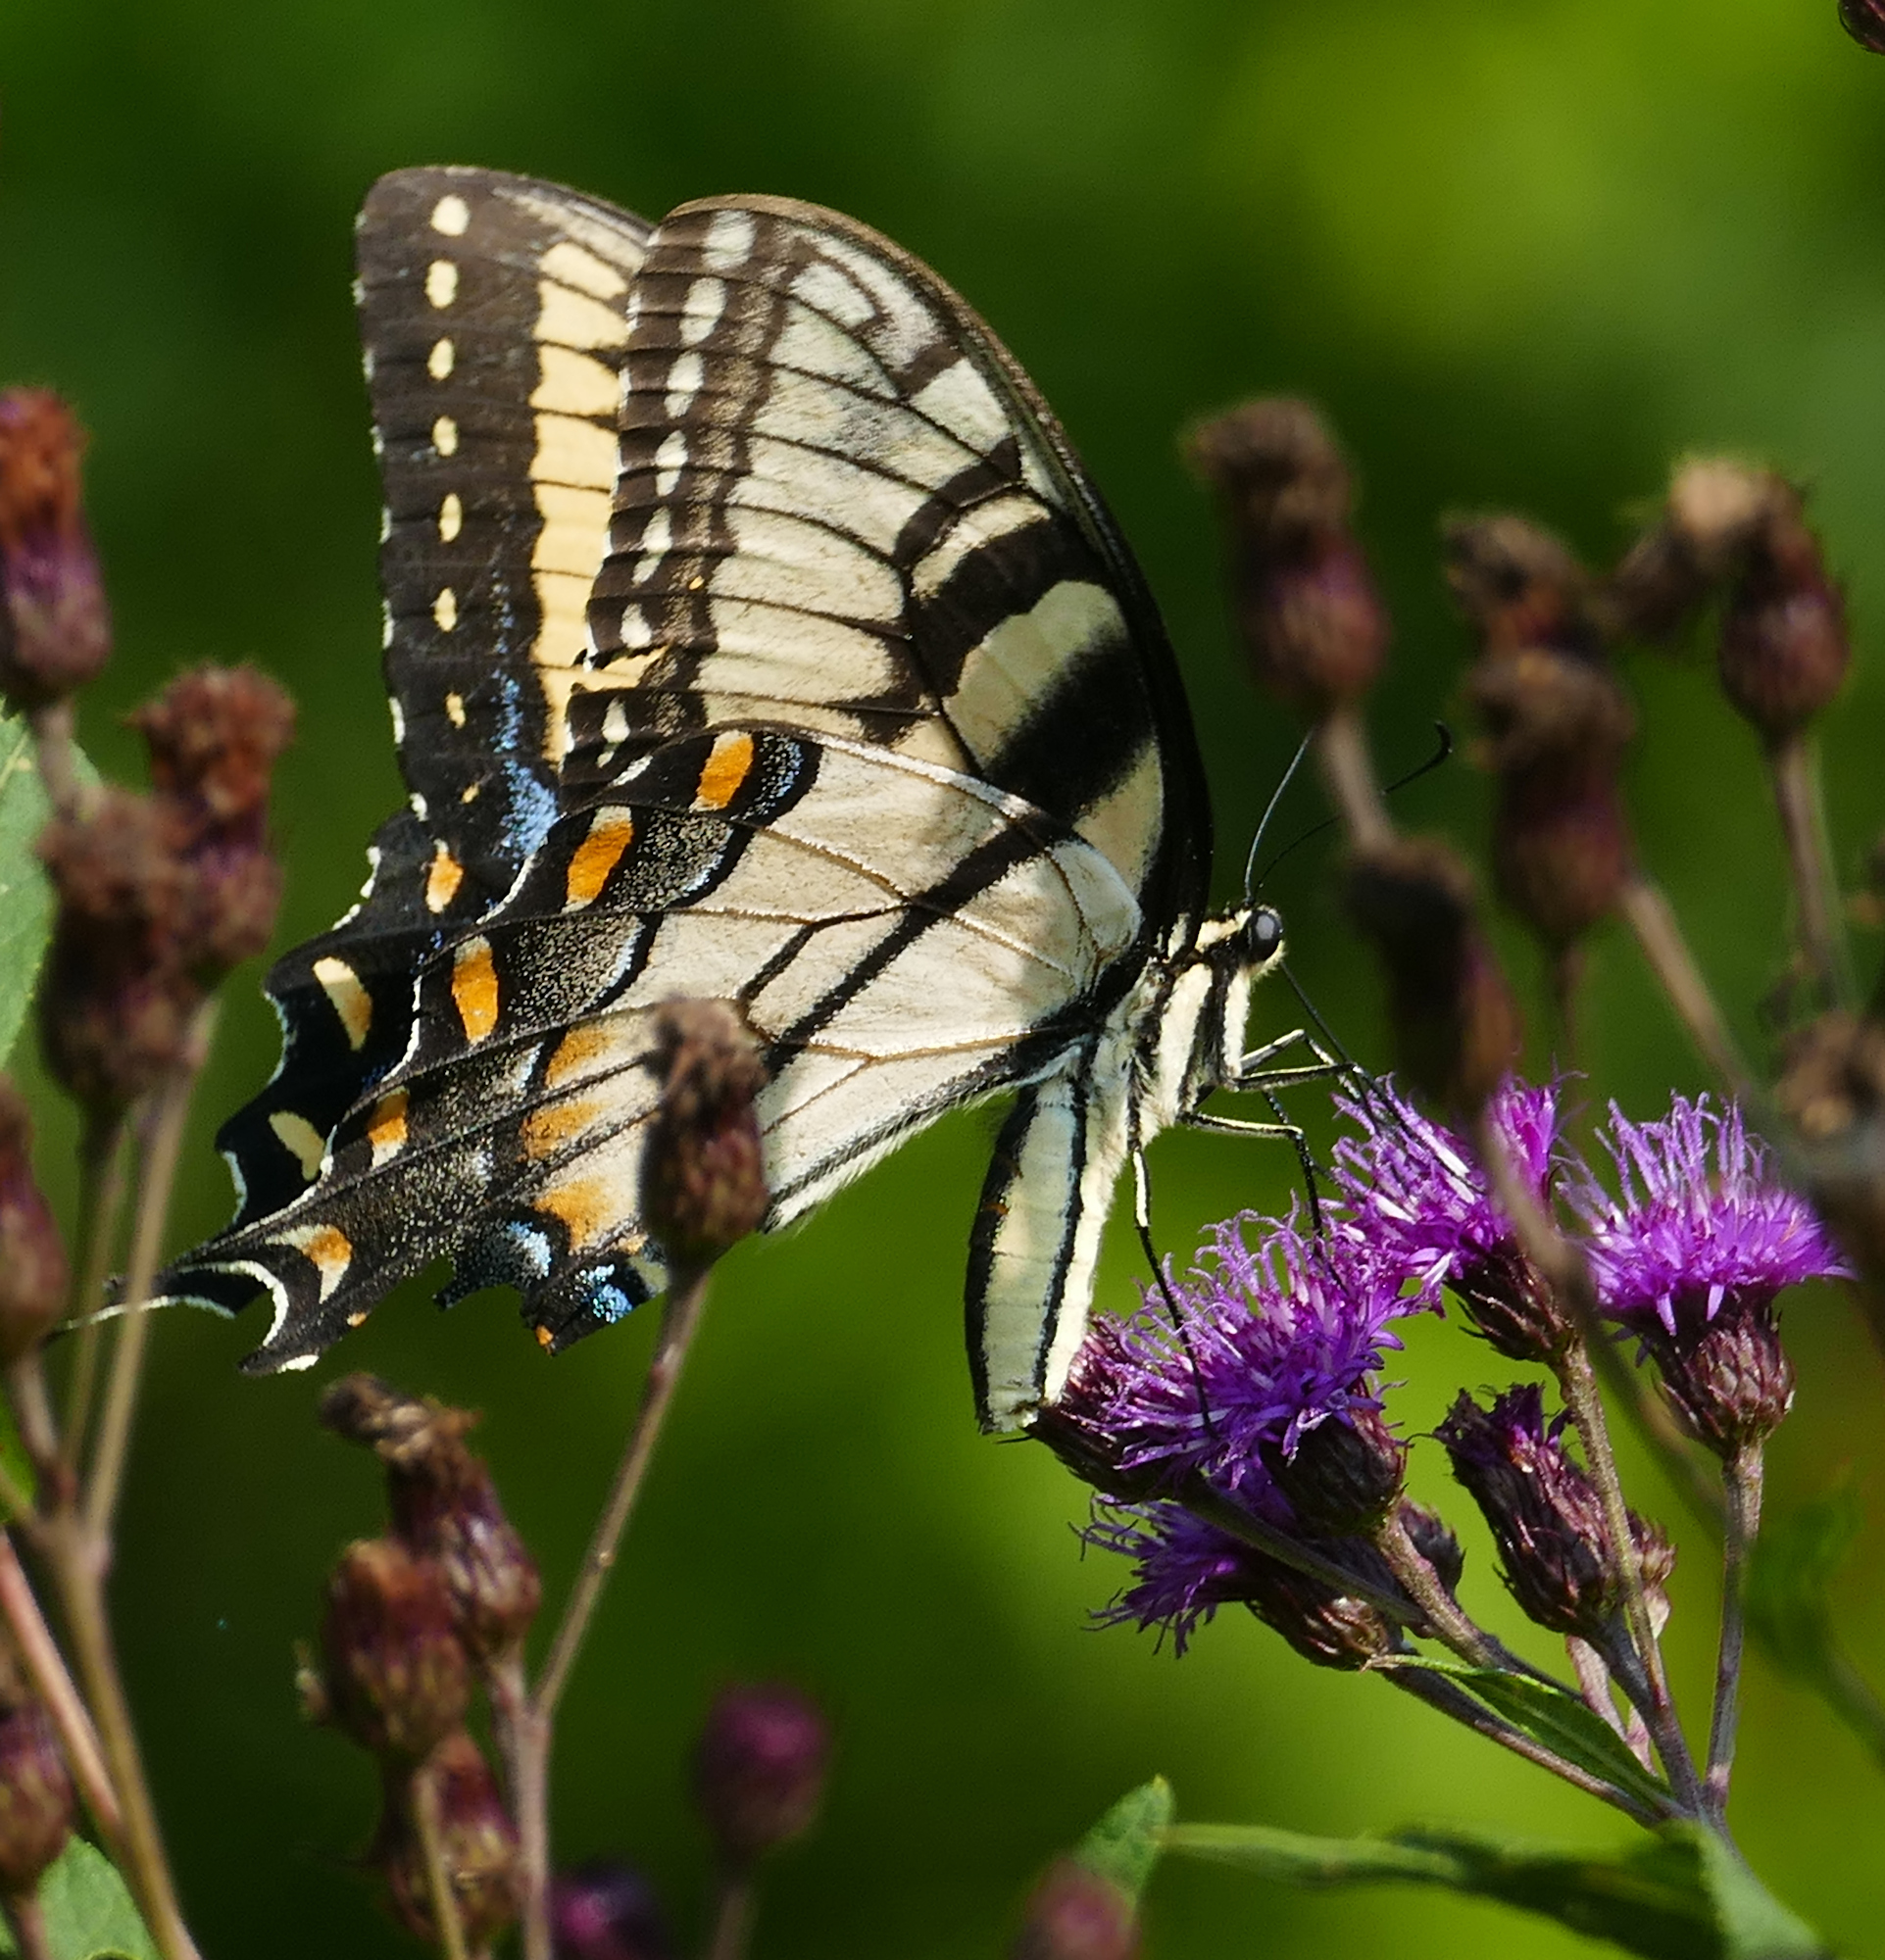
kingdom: Animalia
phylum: Arthropoda
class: Insecta
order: Lepidoptera
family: Papilionidae
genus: Papilio
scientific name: Papilio glaucus
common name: Tiger swallowtail
